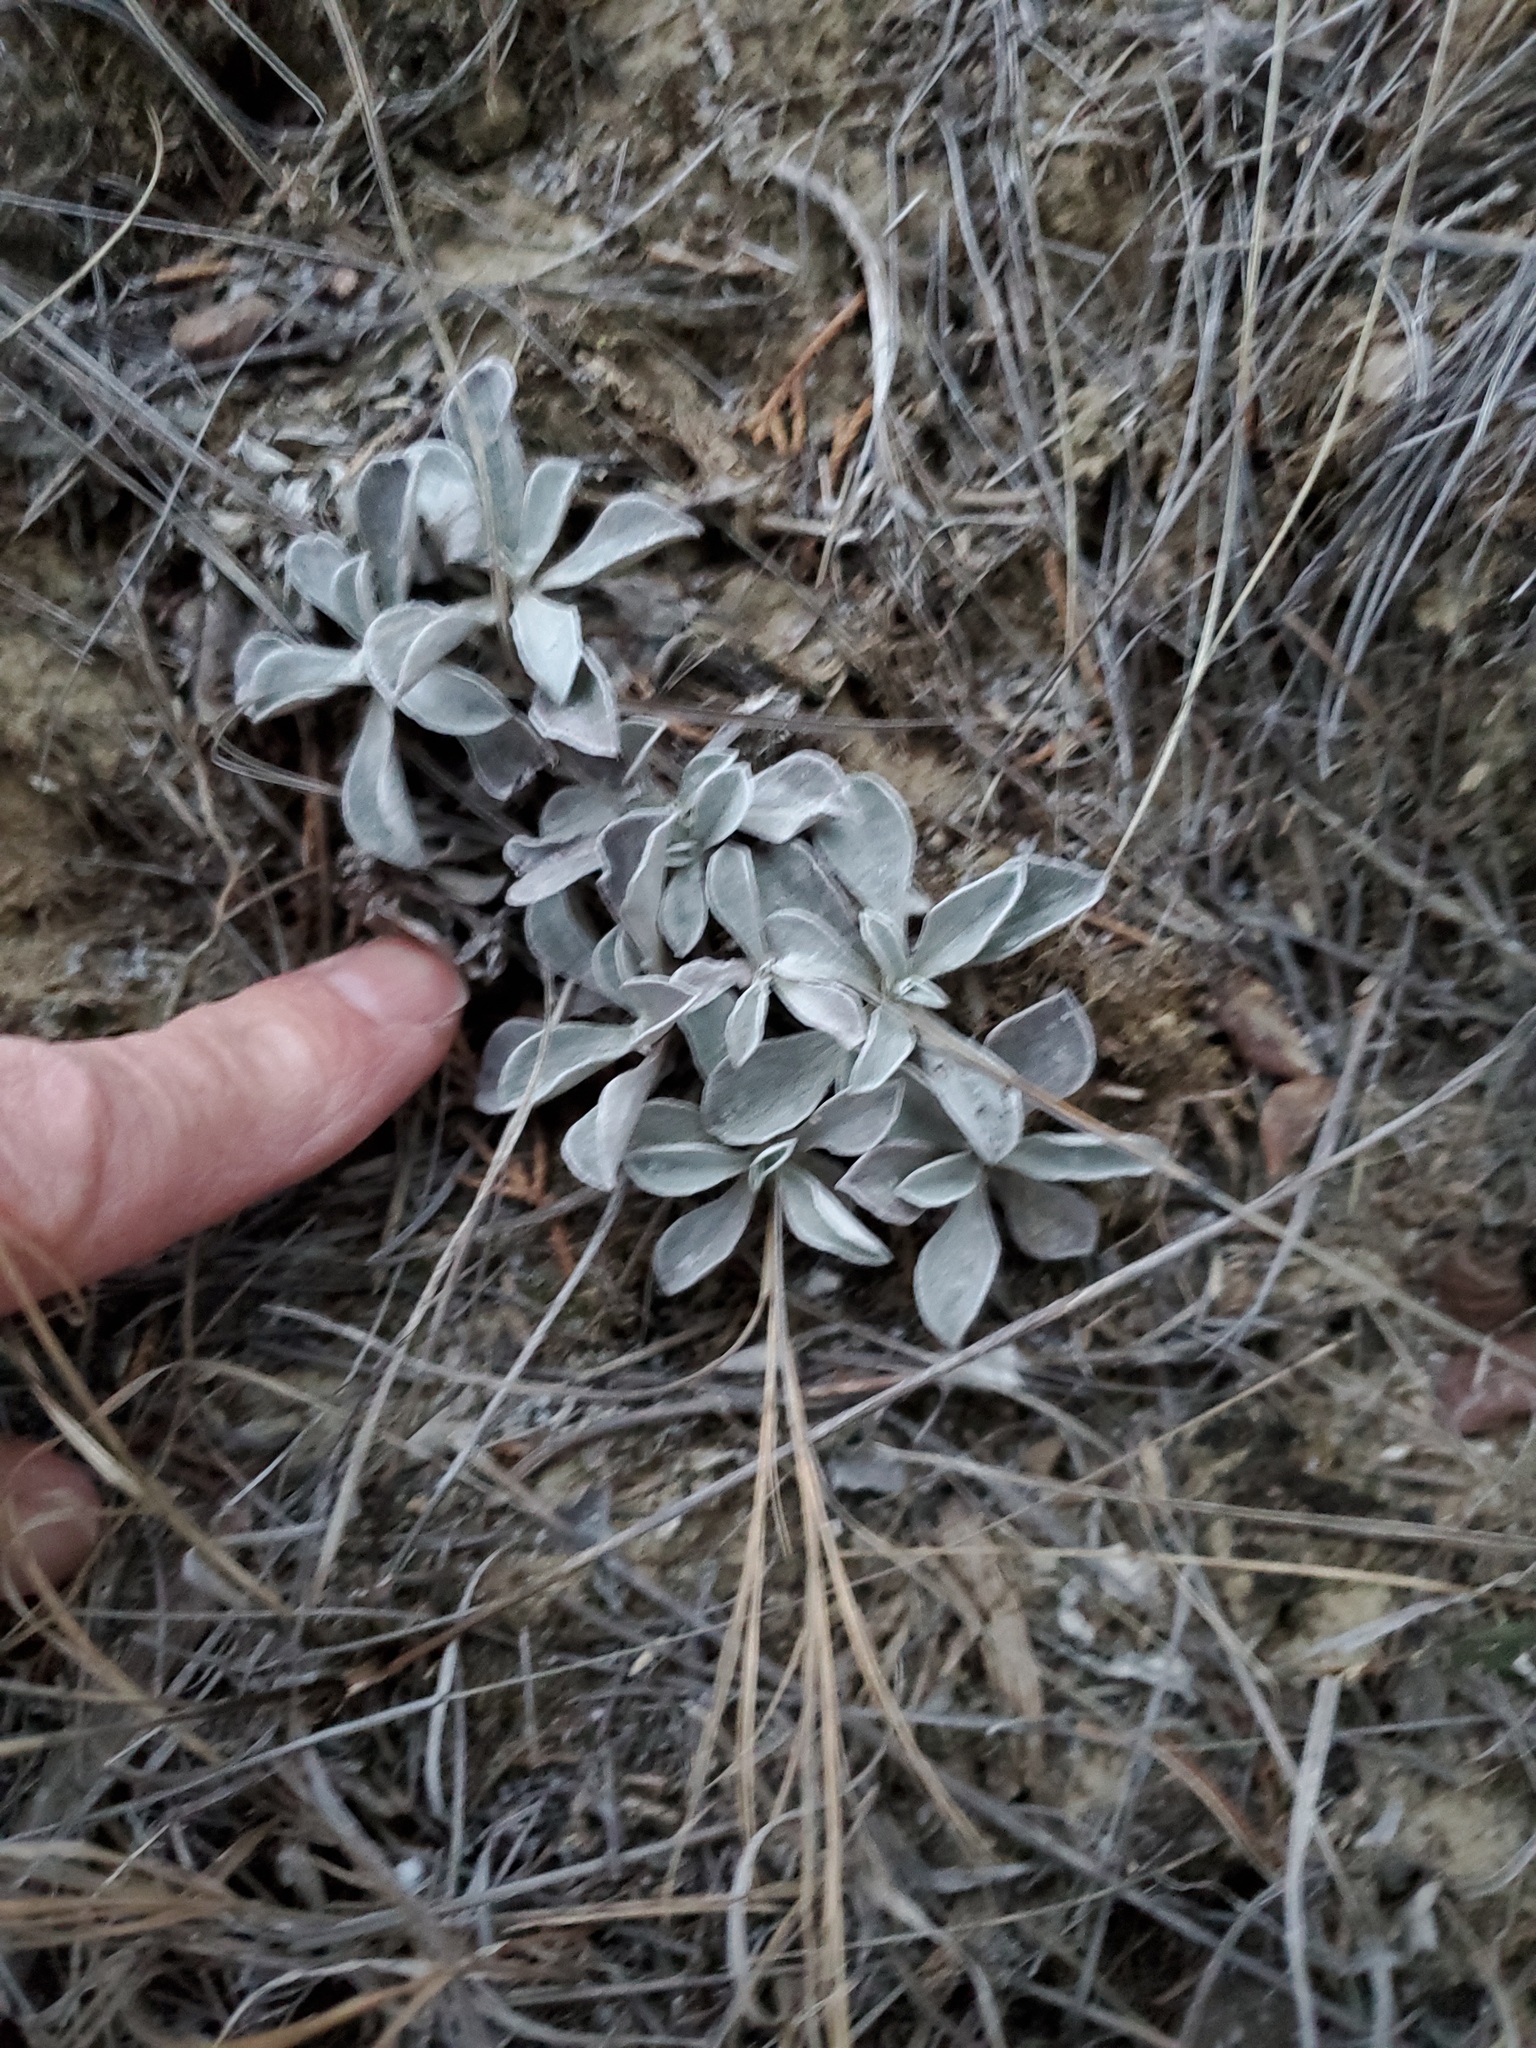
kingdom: Plantae
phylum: Tracheophyta
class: Magnoliopsida
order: Asterales
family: Asteraceae
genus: Antennaria
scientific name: Antennaria parvifolia
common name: Nuttall's pussytoes
